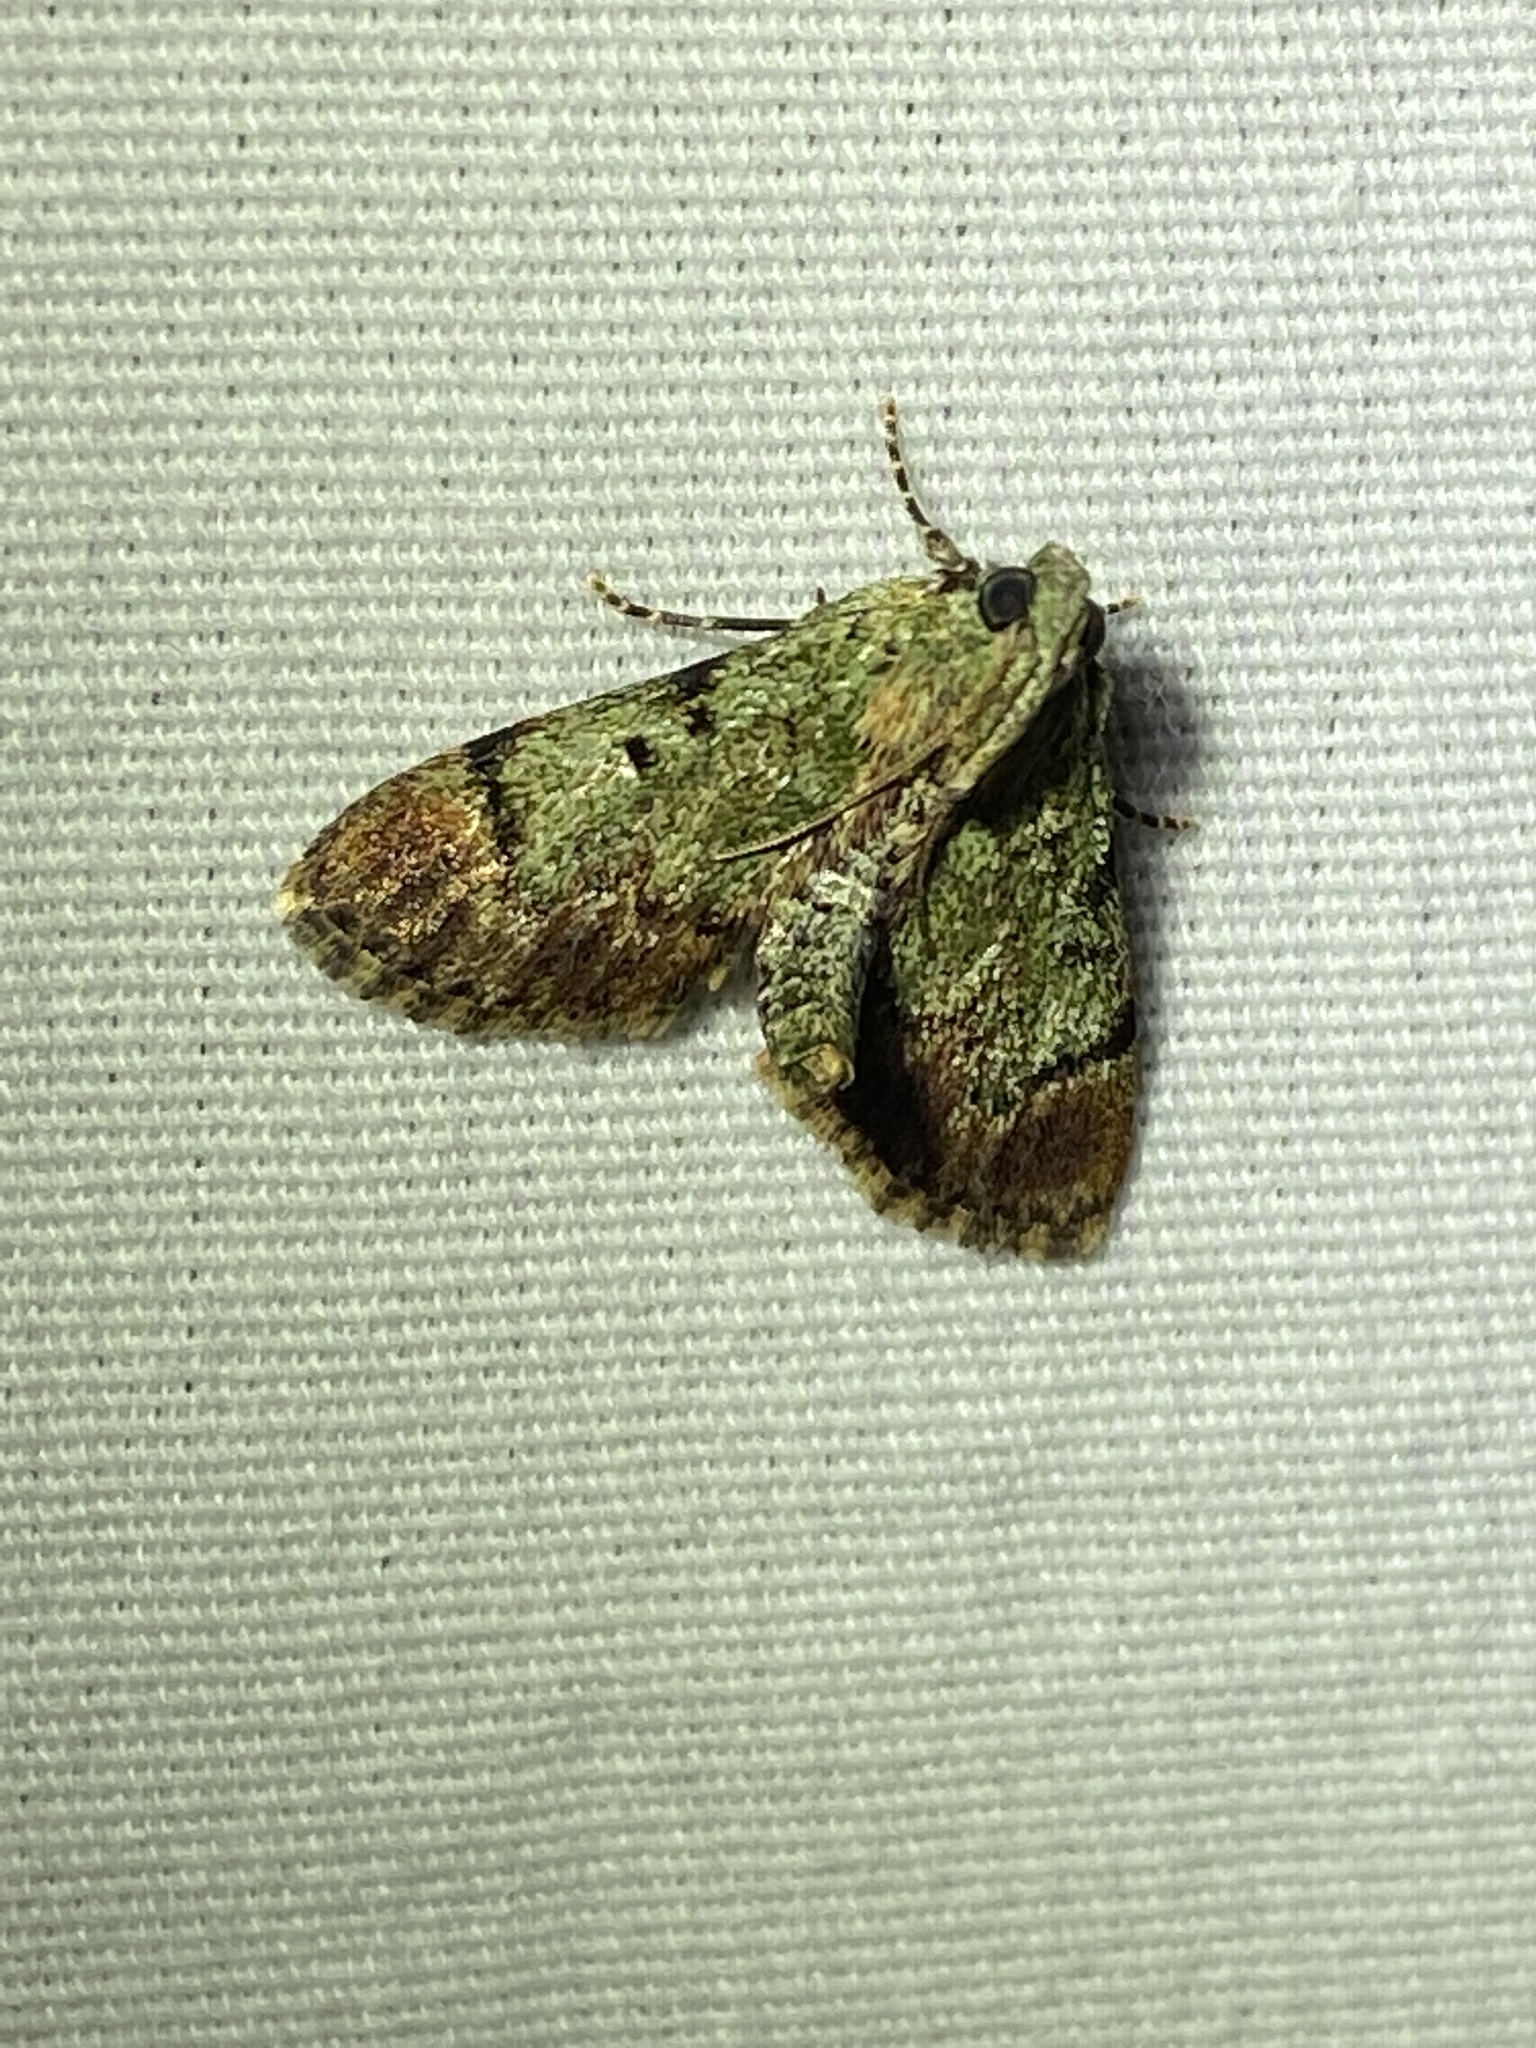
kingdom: Animalia
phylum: Arthropoda
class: Insecta
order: Lepidoptera
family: Pyralidae
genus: Epipaschia
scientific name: Epipaschia superatalis
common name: Dimorphic macalla moth
